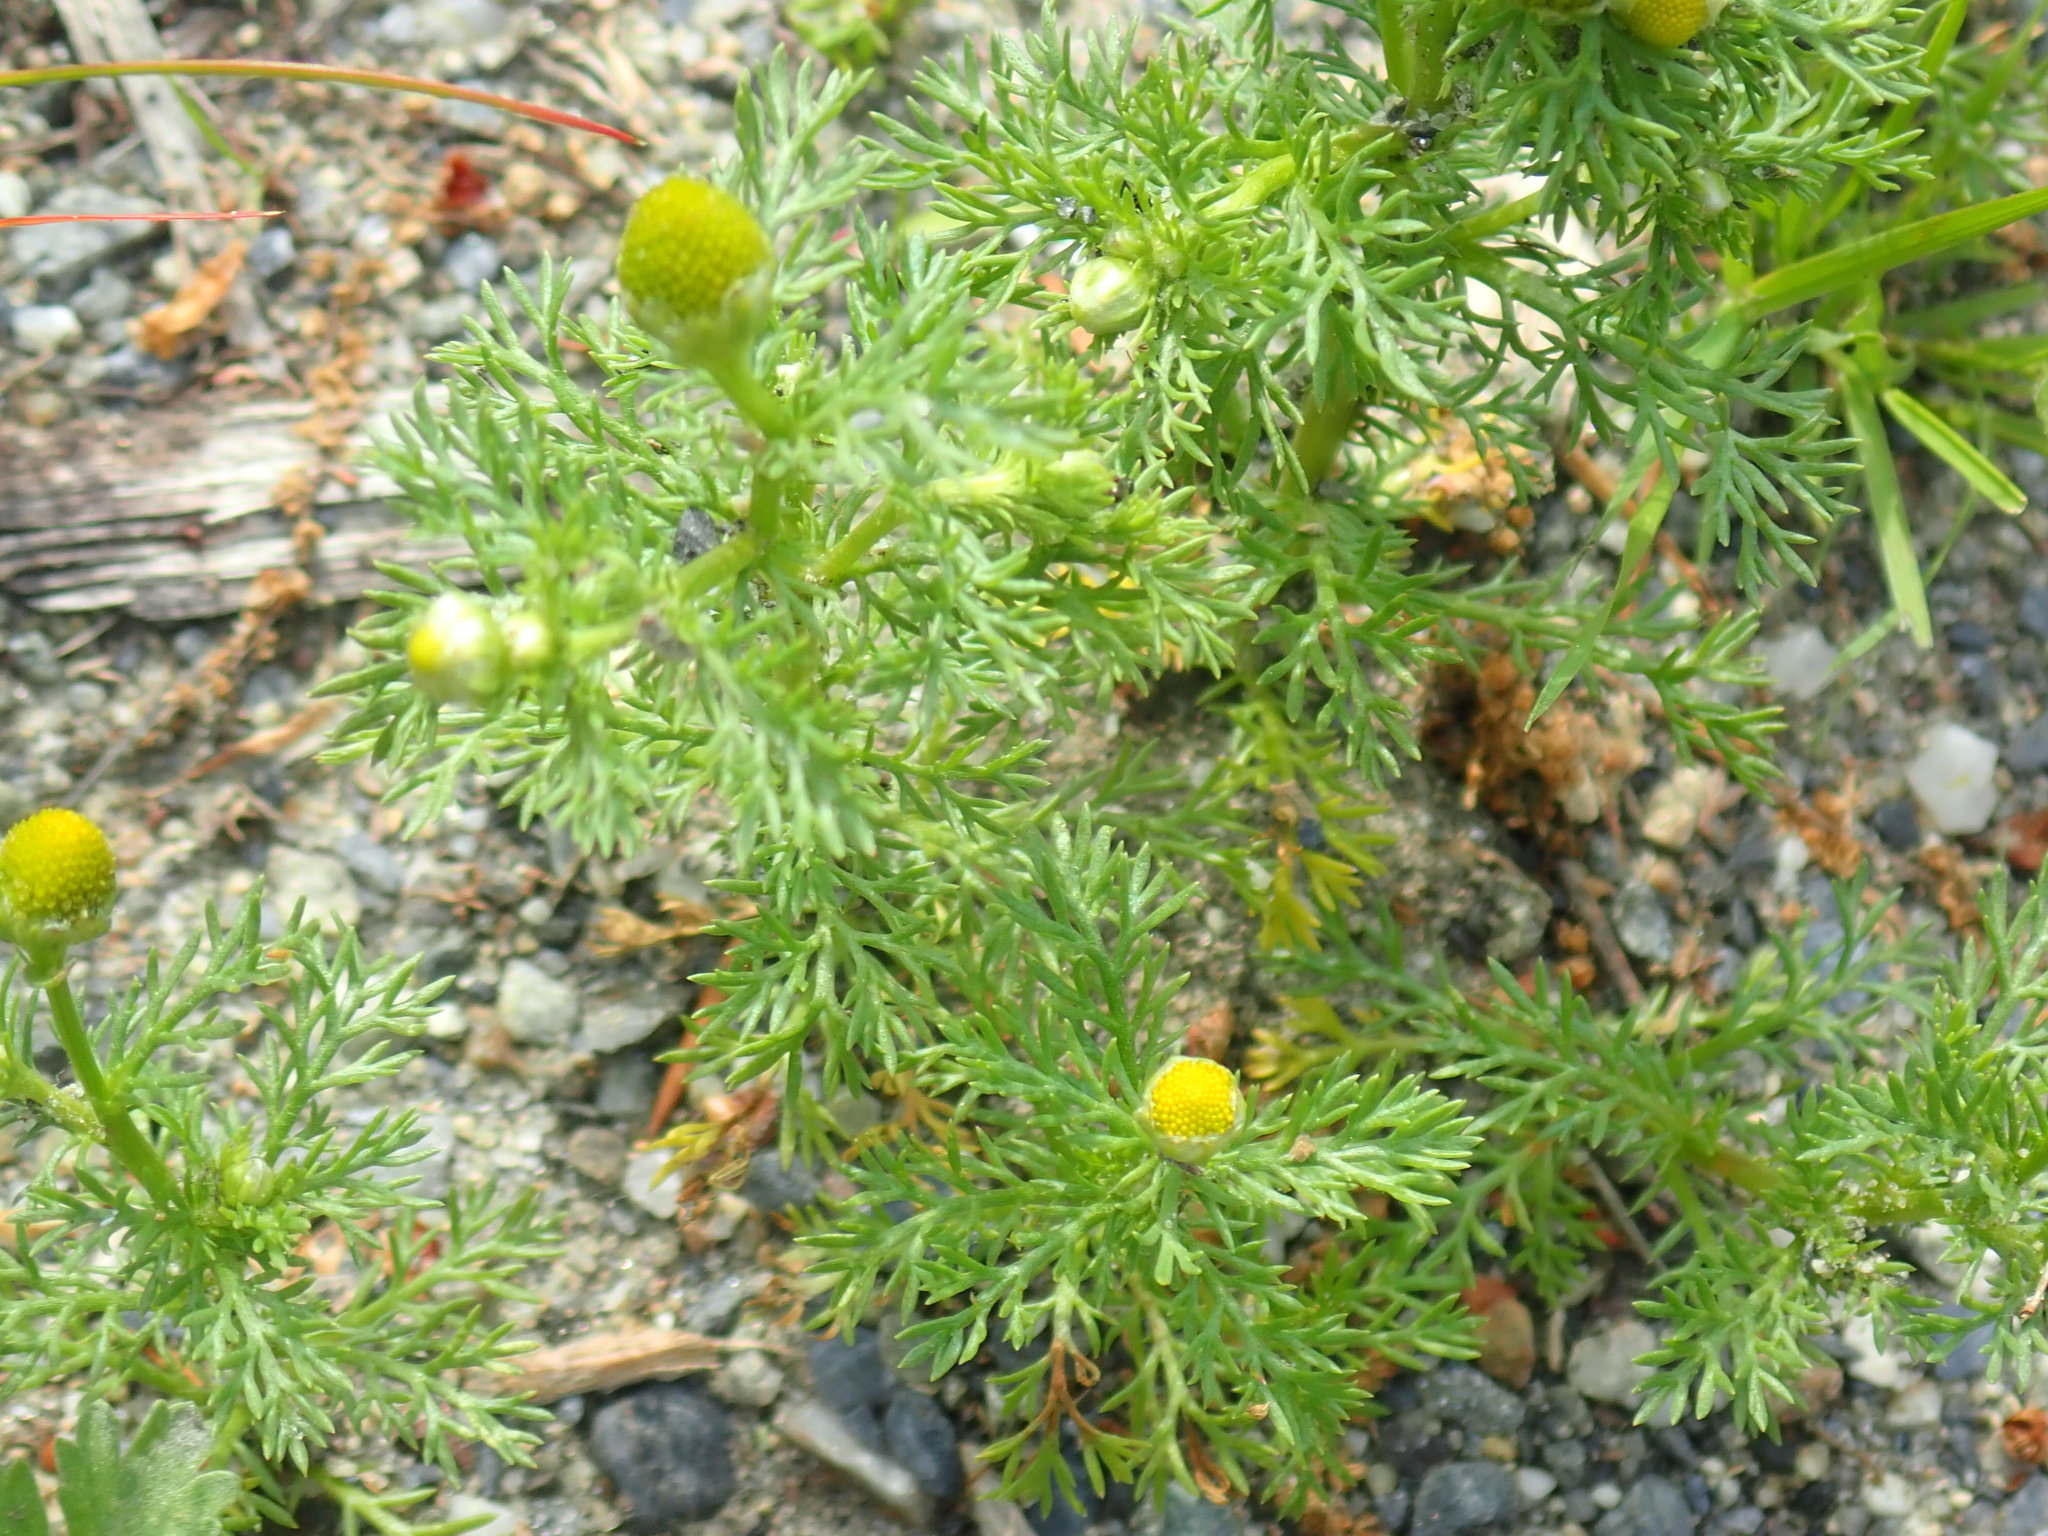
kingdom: Plantae
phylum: Tracheophyta
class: Magnoliopsida
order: Asterales
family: Asteraceae
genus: Matricaria
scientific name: Matricaria discoidea
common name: Disc mayweed
